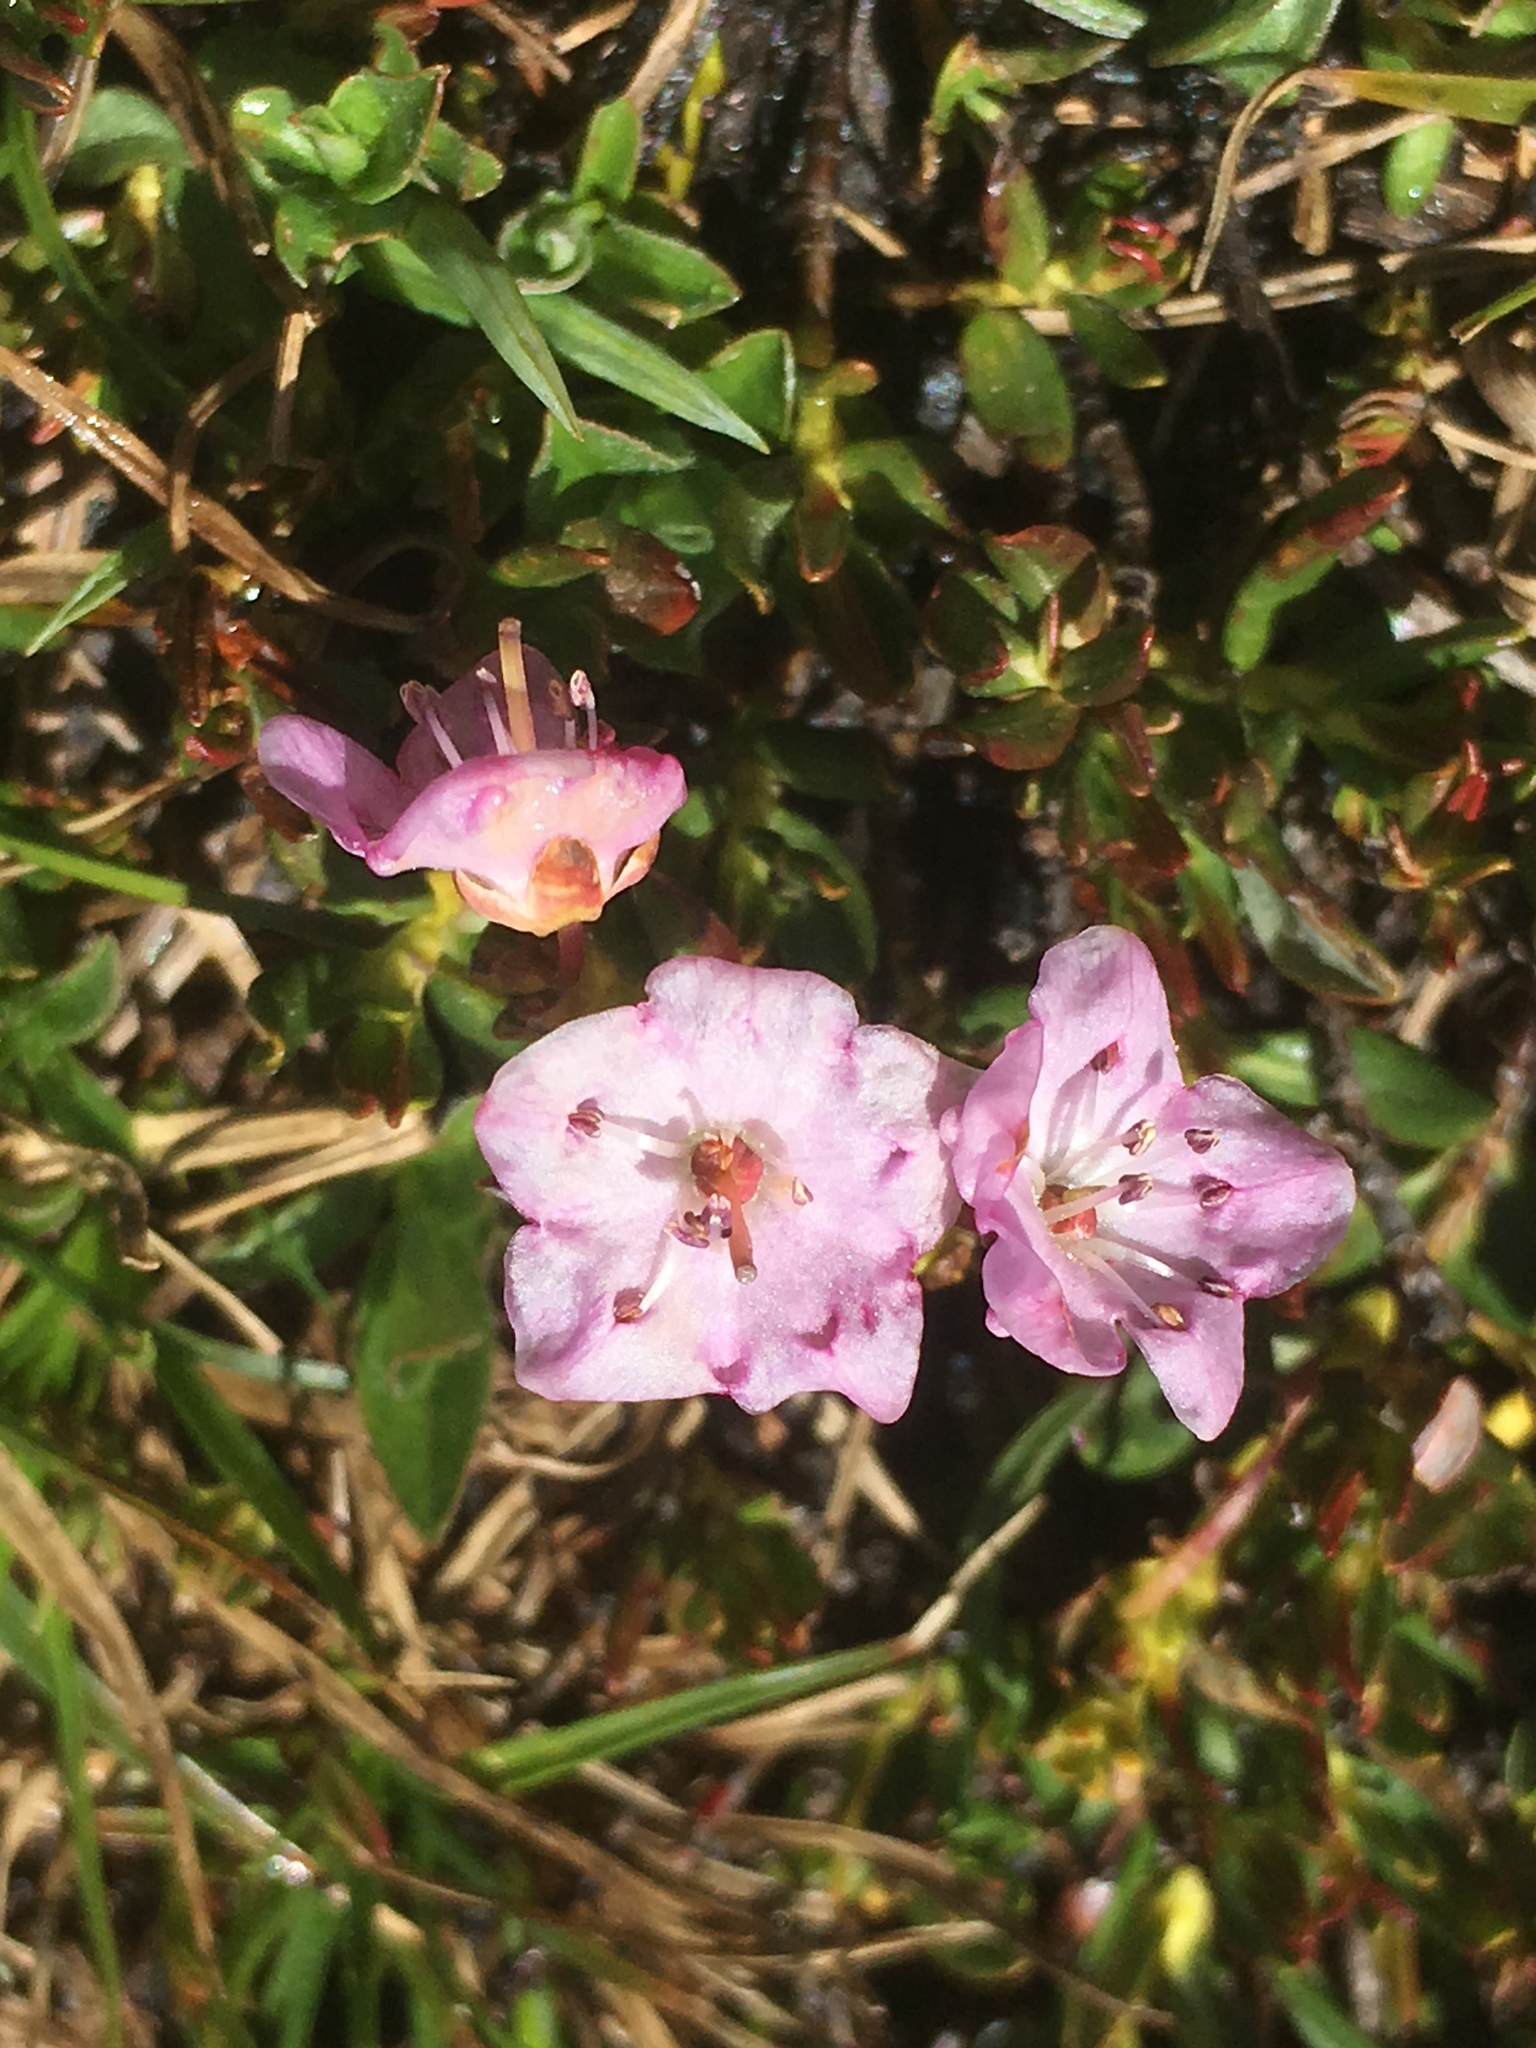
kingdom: Plantae
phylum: Tracheophyta
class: Magnoliopsida
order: Ericales
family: Ericaceae
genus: Kalmia
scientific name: Kalmia microphylla
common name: Alpine bog laurel
